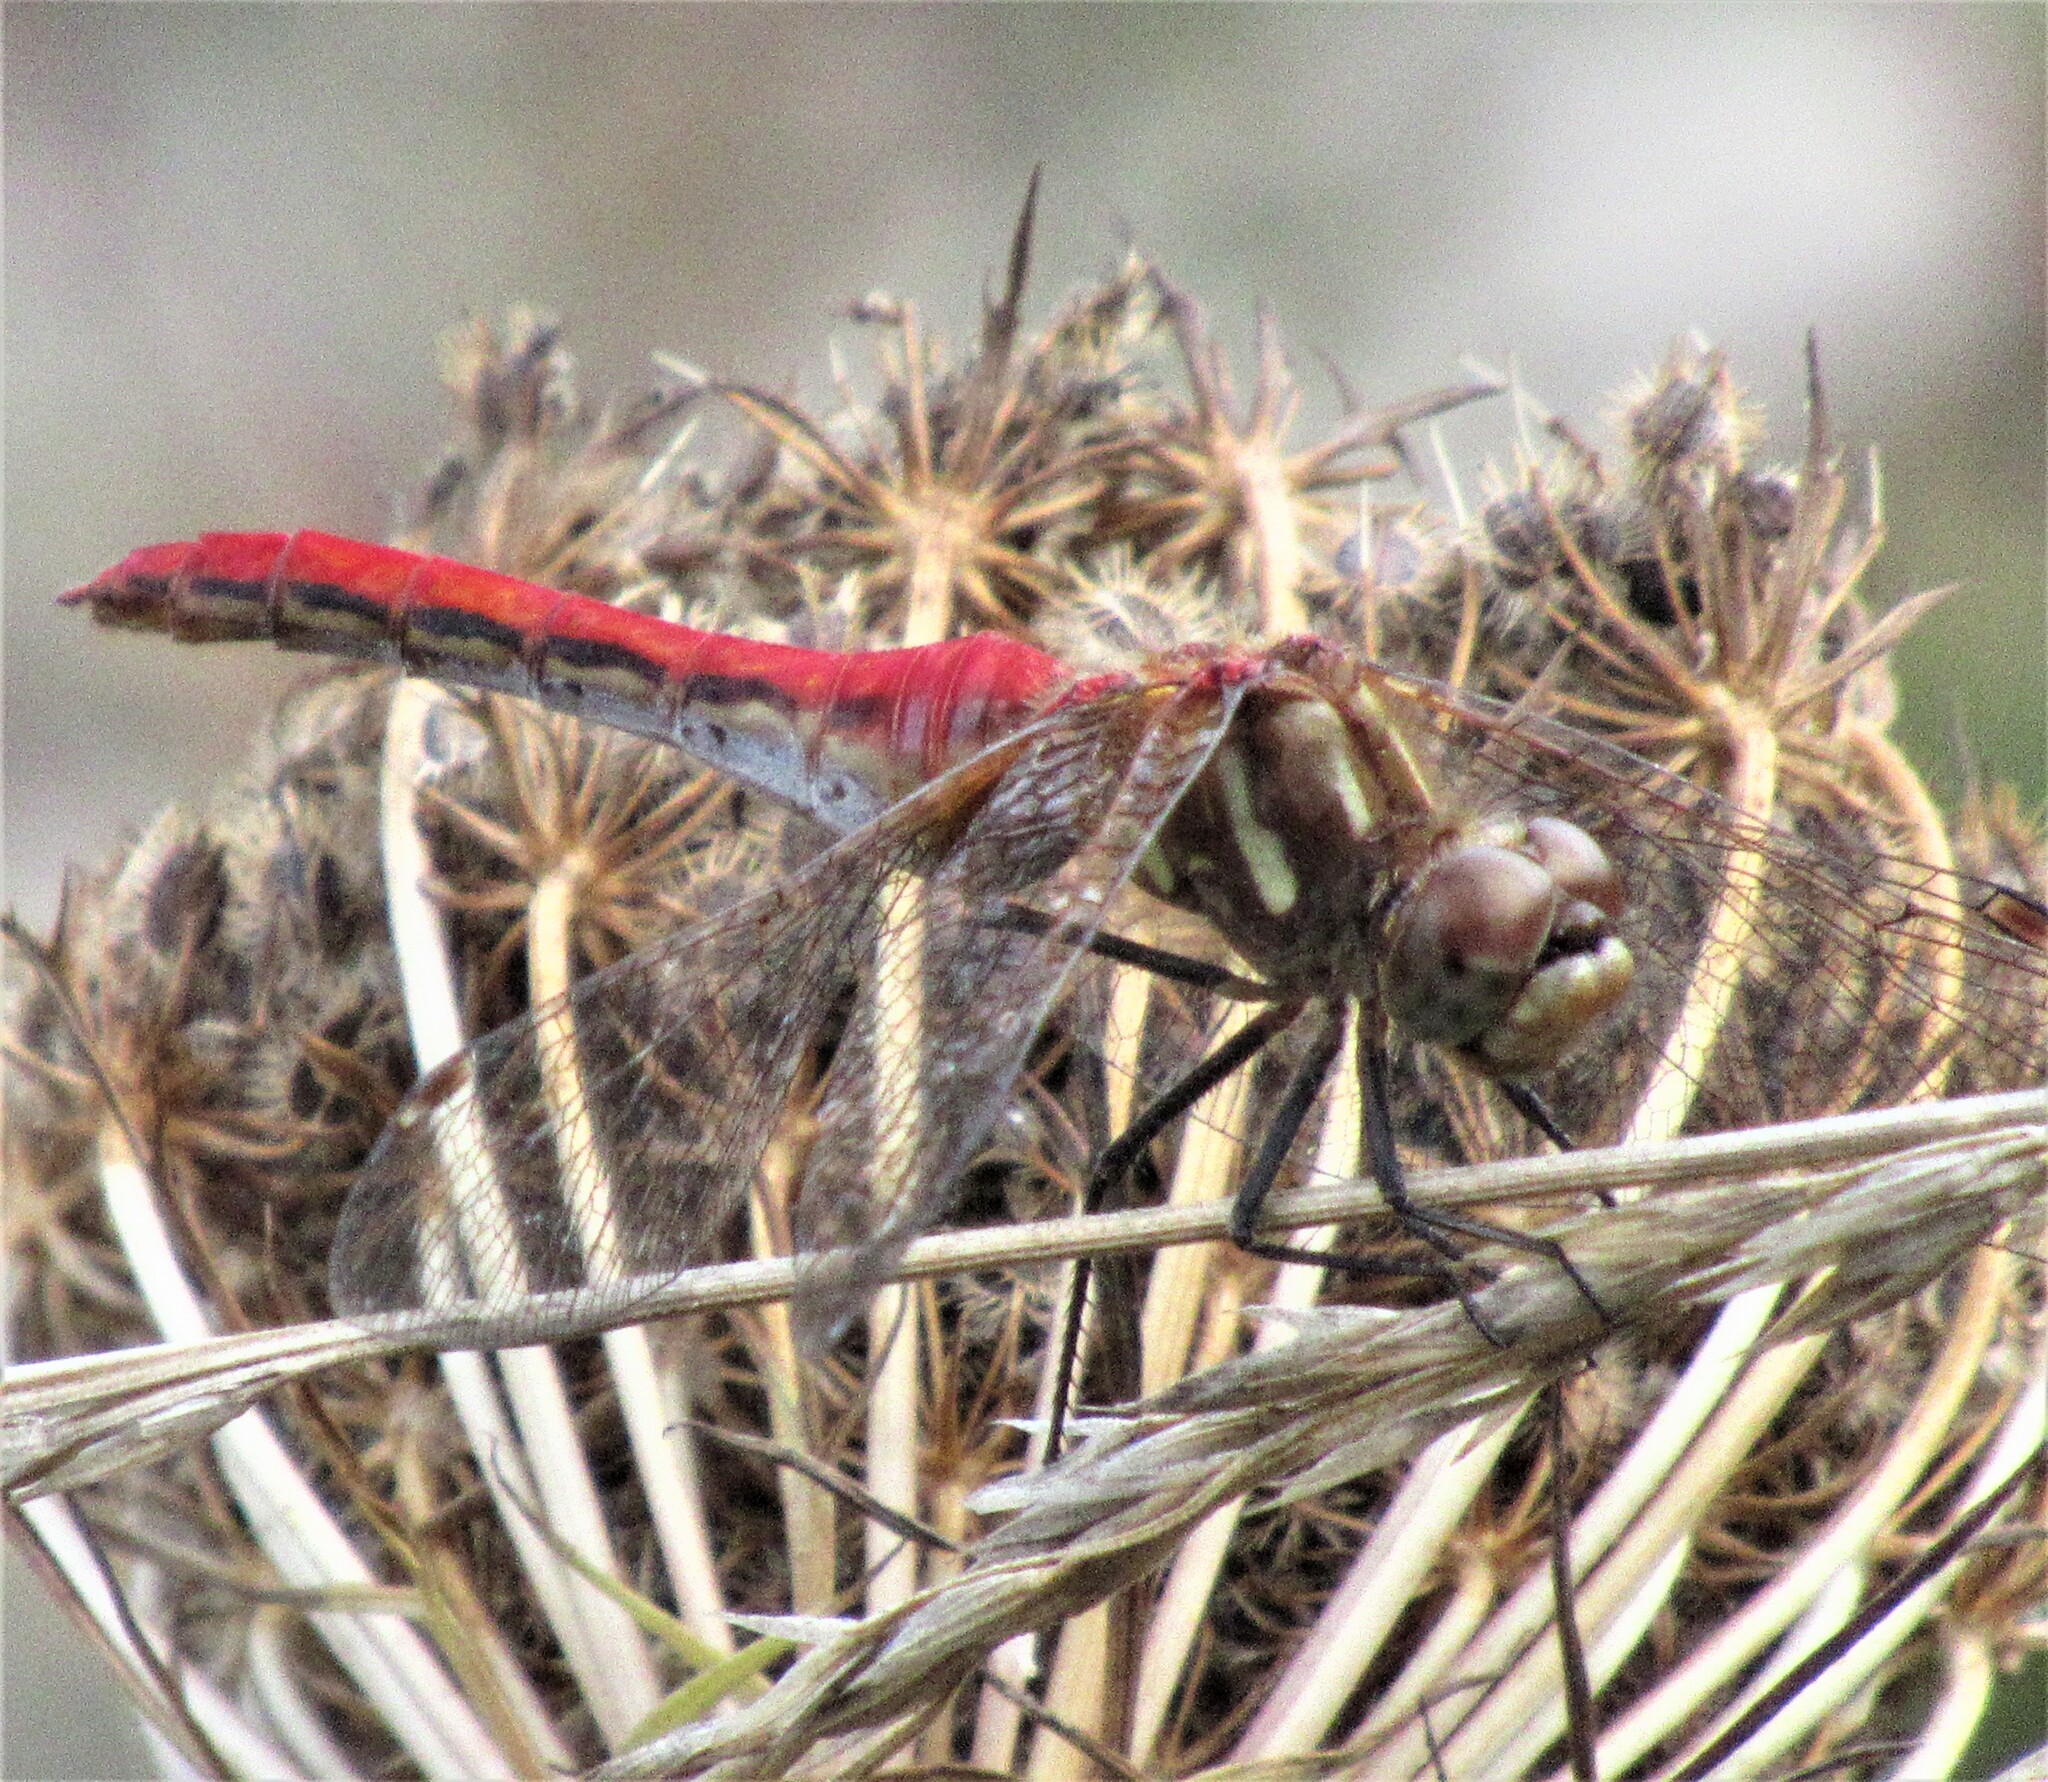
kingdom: Animalia
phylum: Arthropoda
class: Insecta
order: Odonata
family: Libellulidae
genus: Sympetrum
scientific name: Sympetrum pallipes
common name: Striped meadowhawk
